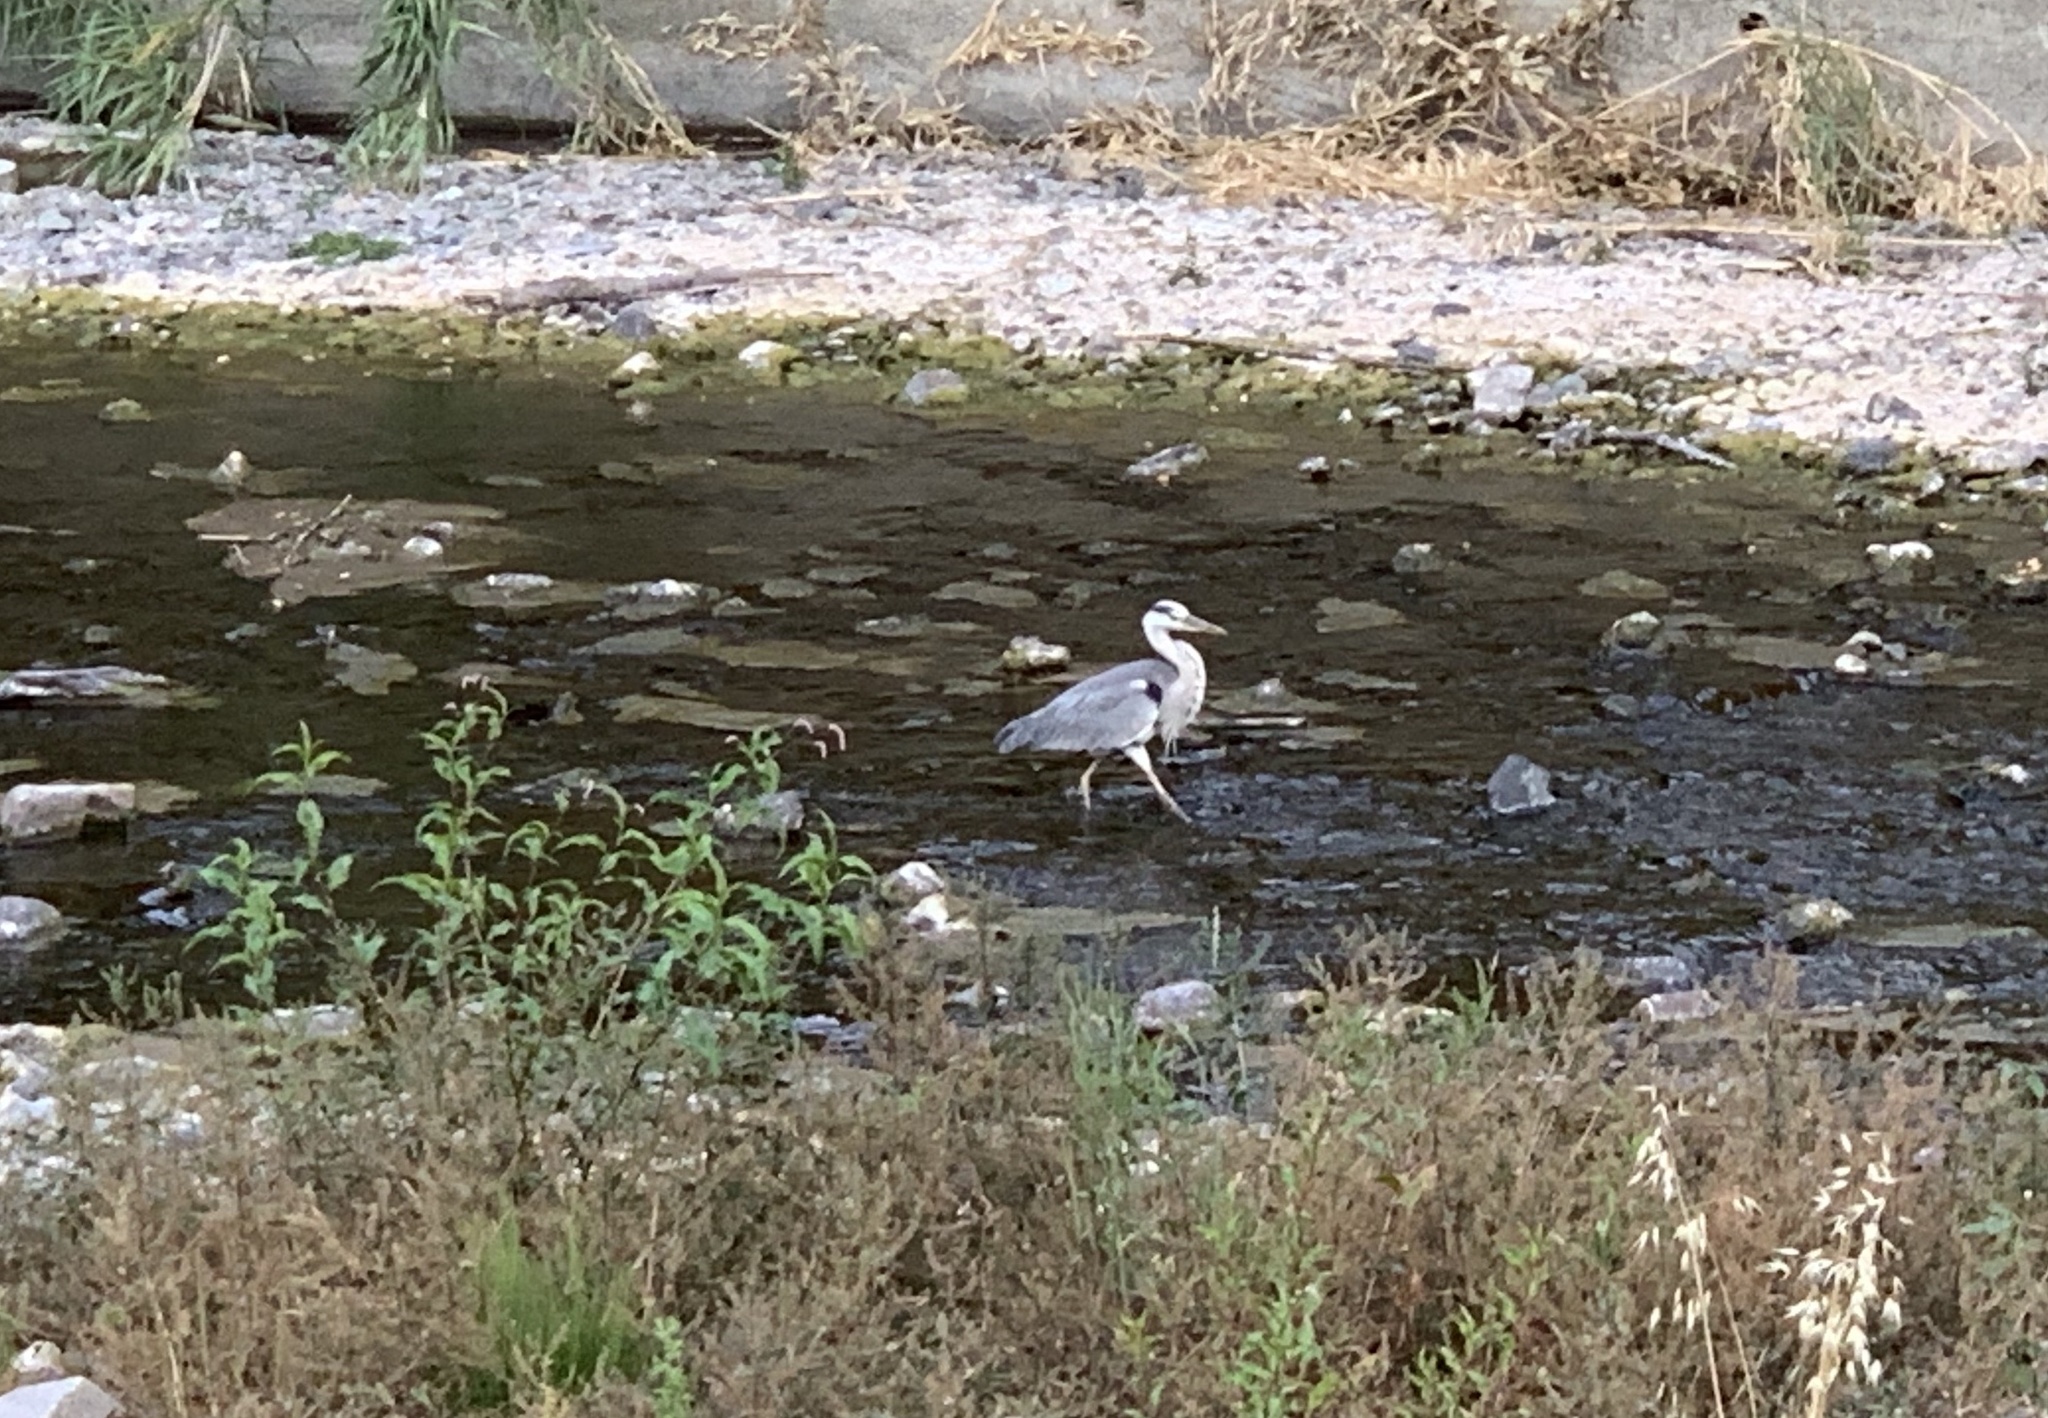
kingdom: Animalia
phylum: Chordata
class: Aves
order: Pelecaniformes
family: Ardeidae
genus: Ardea
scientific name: Ardea cinerea
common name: Grey heron
